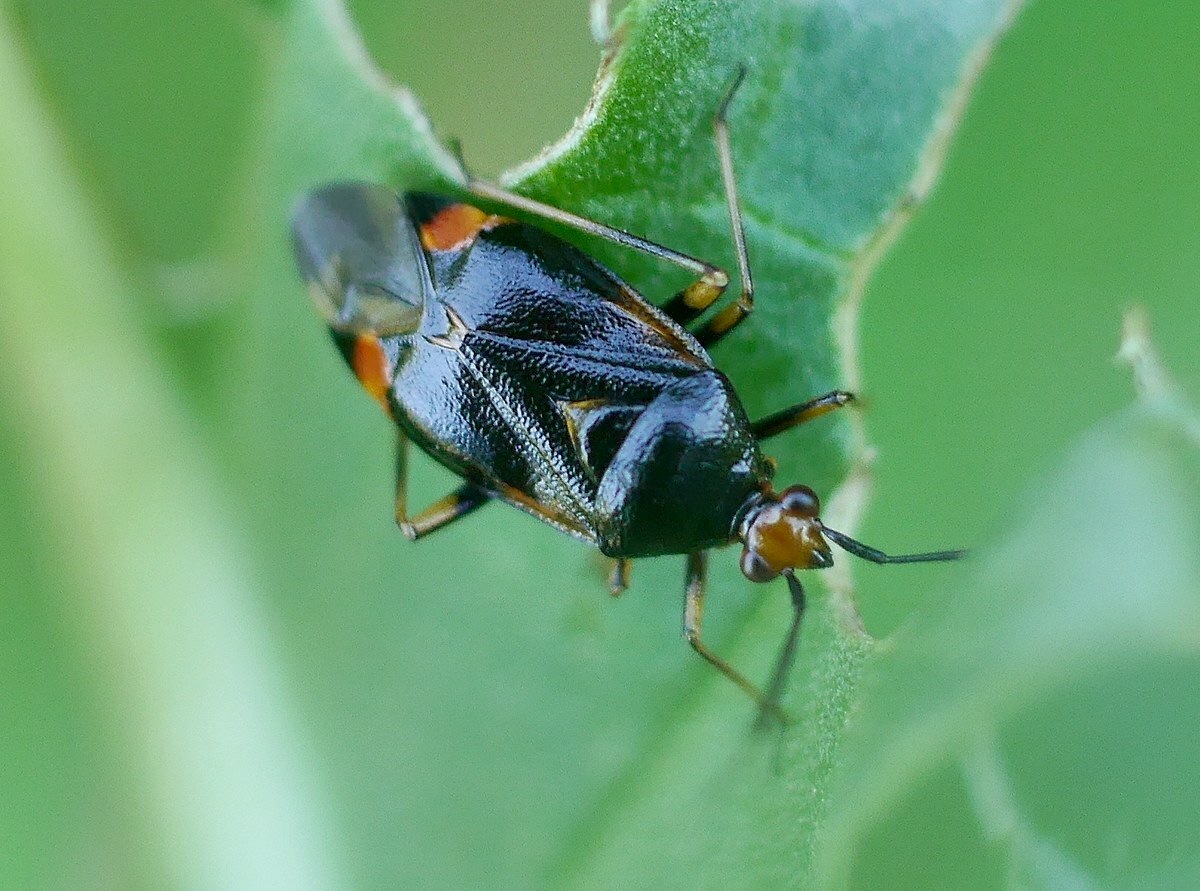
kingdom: Animalia
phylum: Arthropoda
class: Insecta
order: Hemiptera
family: Miridae
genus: Deraeocoris
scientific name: Deraeocoris ruber
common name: Plant bug
